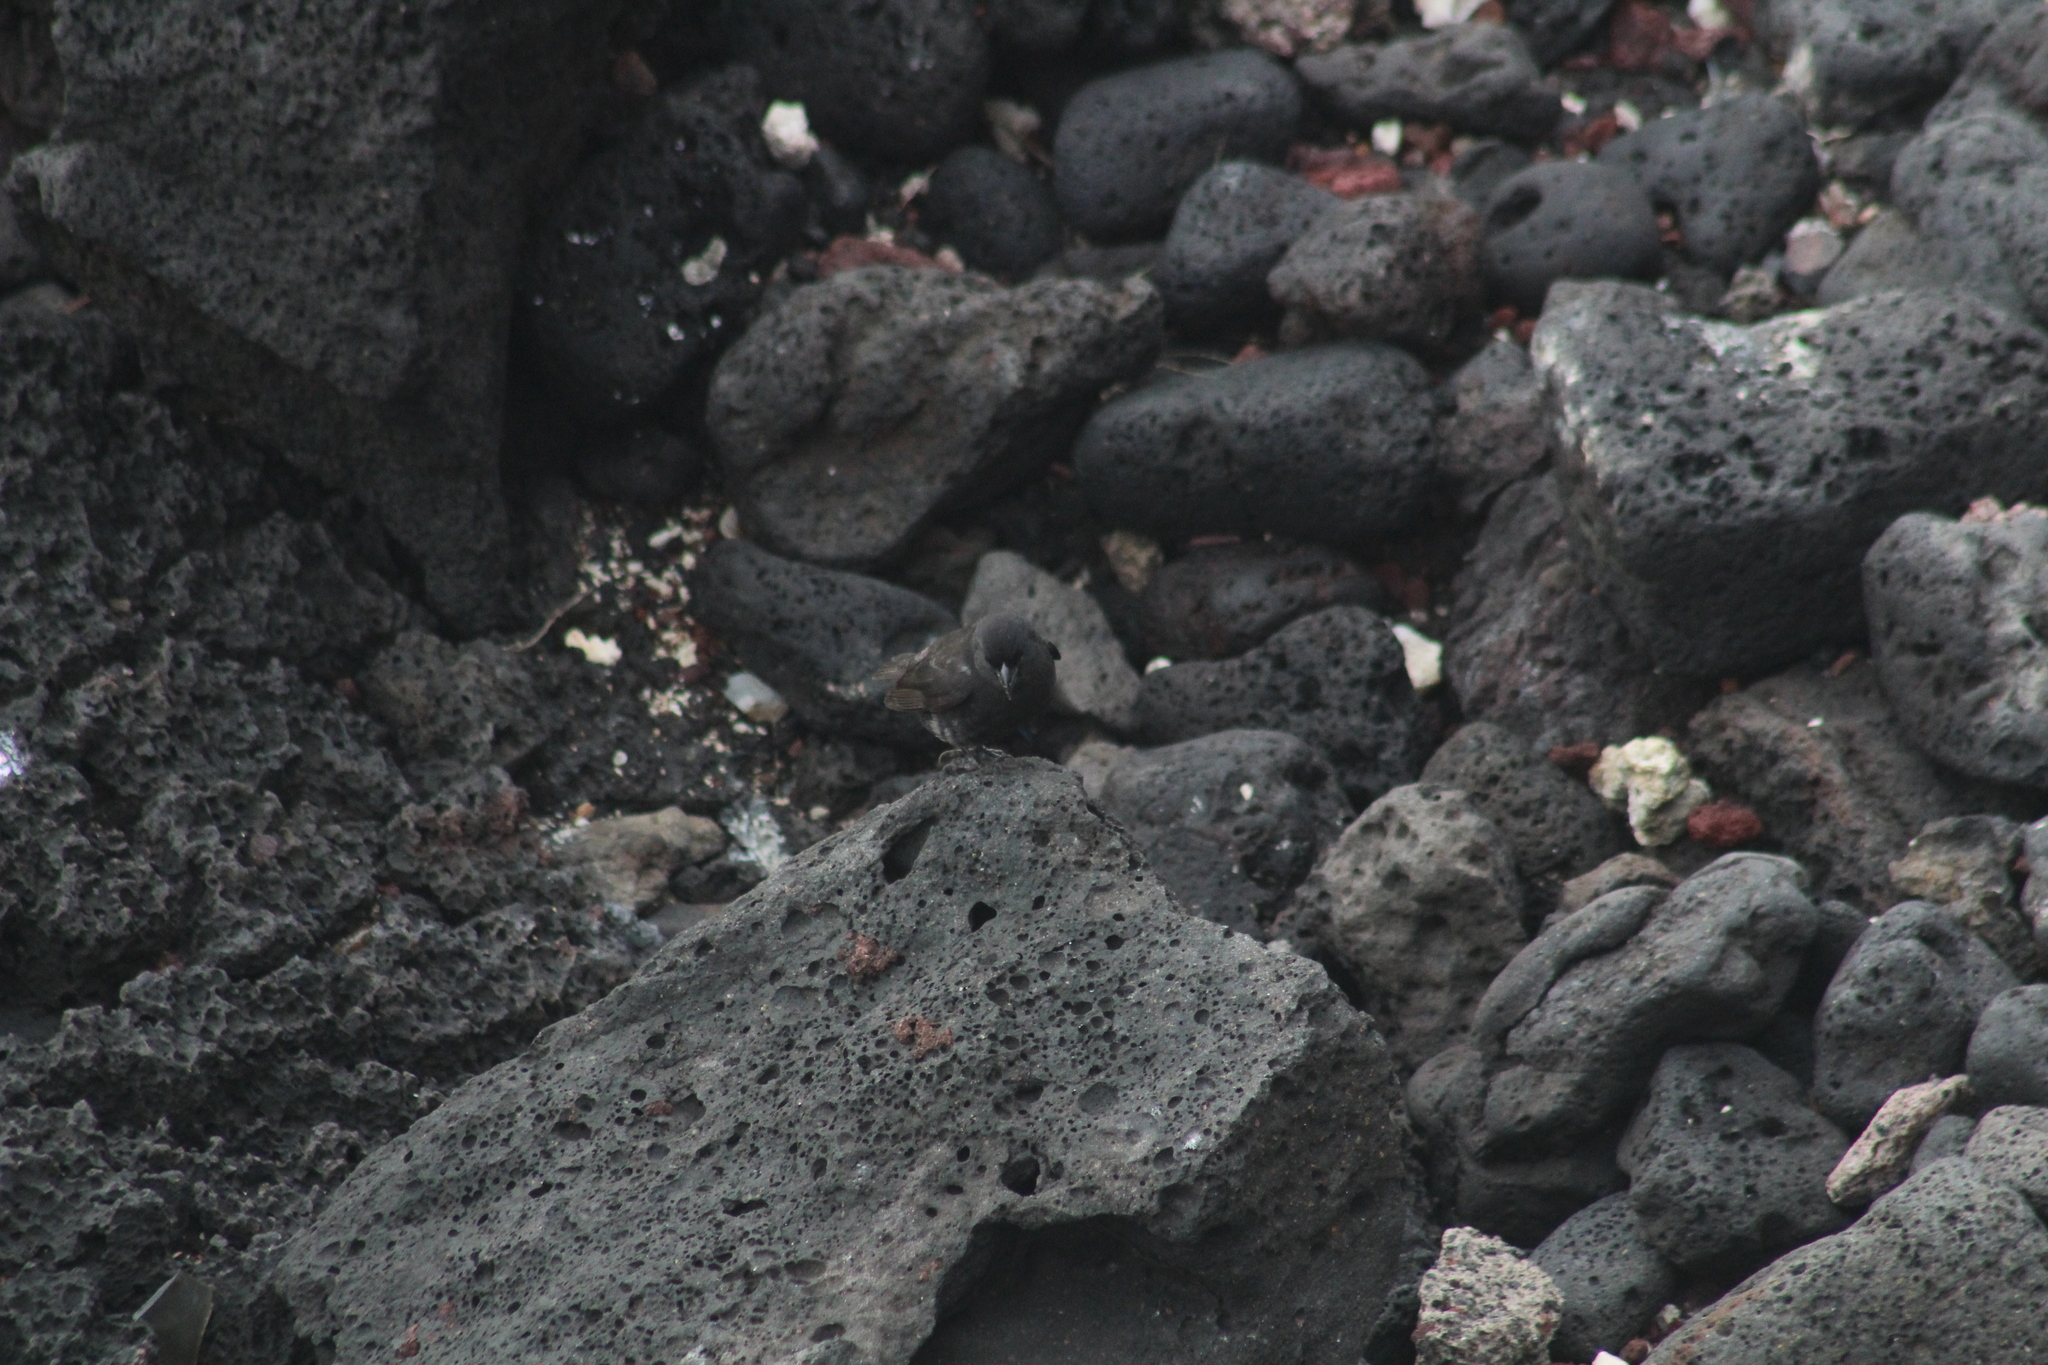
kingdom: Animalia
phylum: Chordata
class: Aves
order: Passeriformes
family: Thraupidae
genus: Geospiza
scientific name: Geospiza fortis
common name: Medium ground finch
